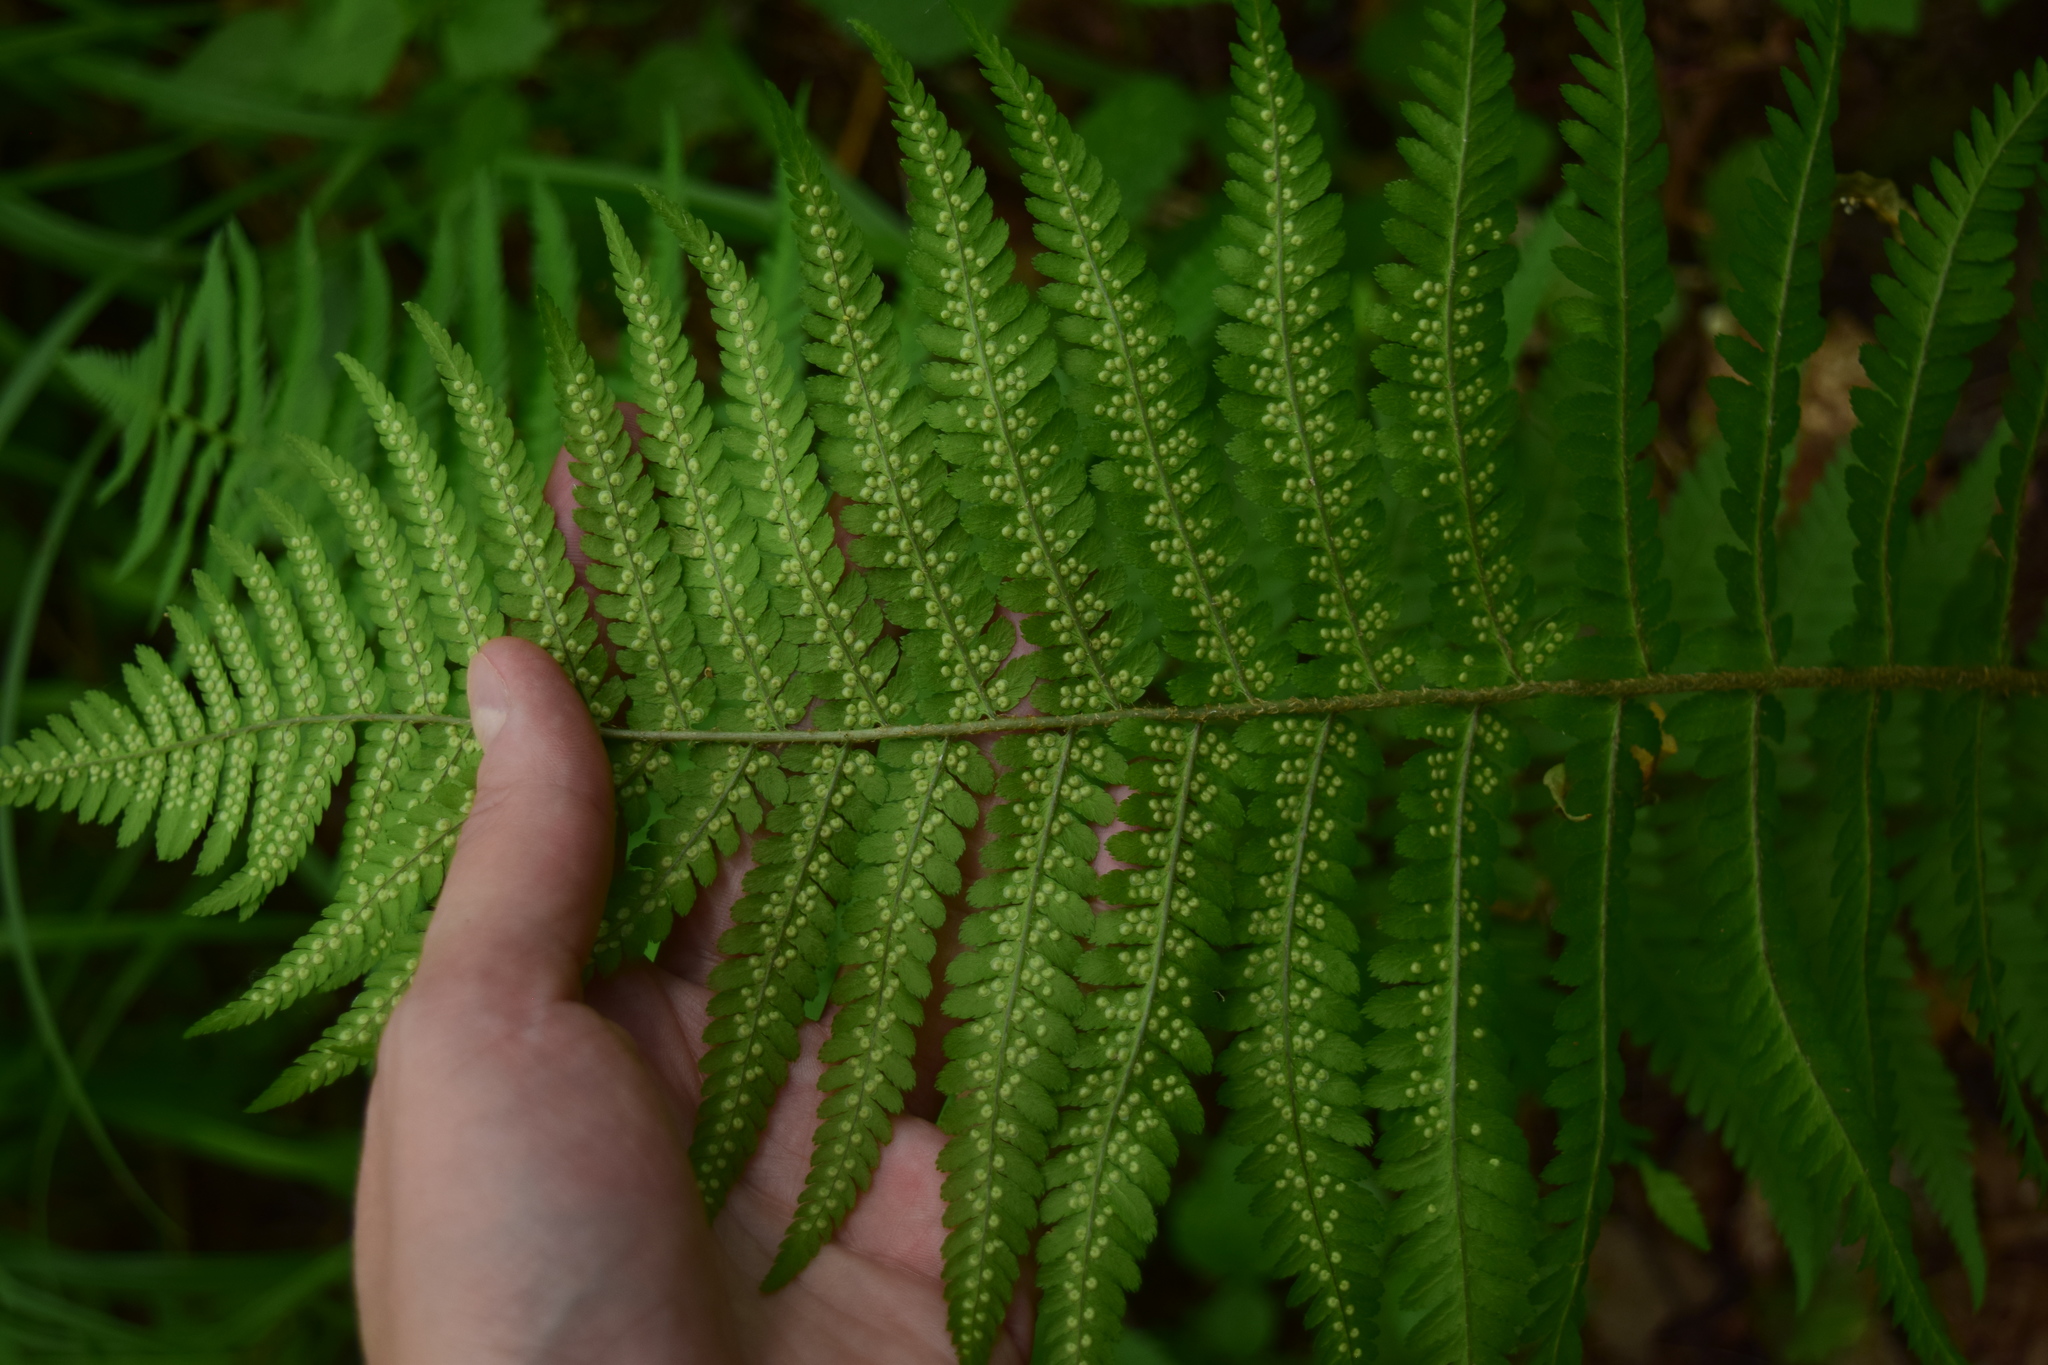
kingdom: Plantae
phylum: Tracheophyta
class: Polypodiopsida
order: Polypodiales
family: Dryopteridaceae
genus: Dryopteris
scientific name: Dryopteris filix-mas
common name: Male fern
